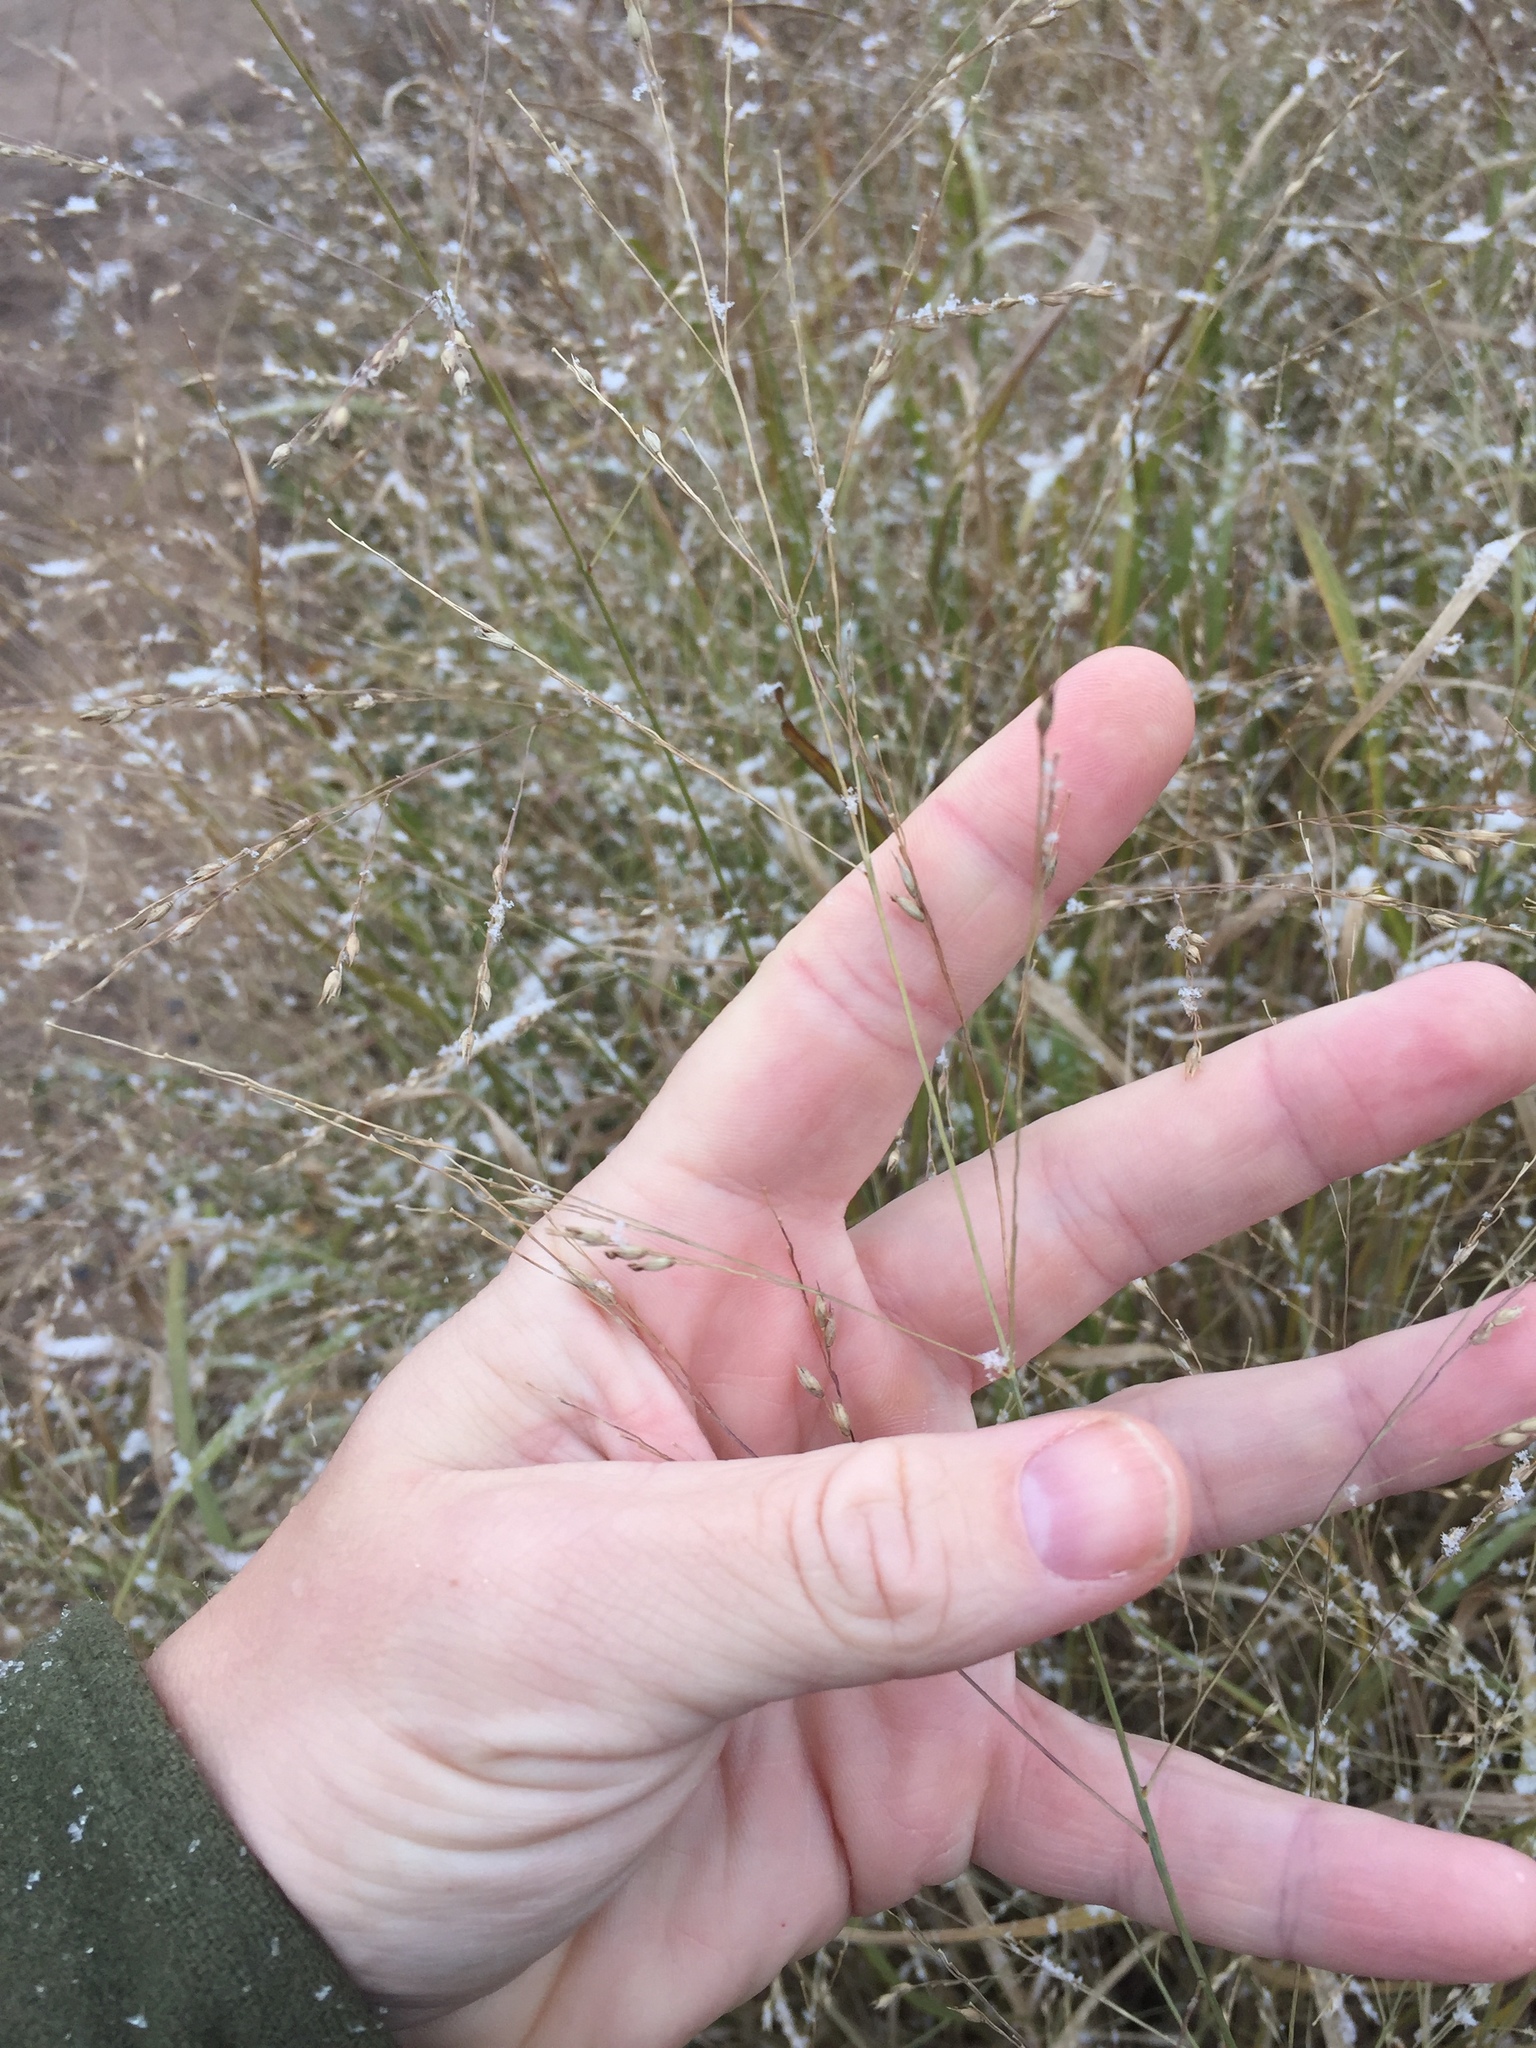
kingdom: Plantae
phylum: Tracheophyta
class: Liliopsida
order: Poales
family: Poaceae
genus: Panicum
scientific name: Panicum virgatum
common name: Switchgrass
